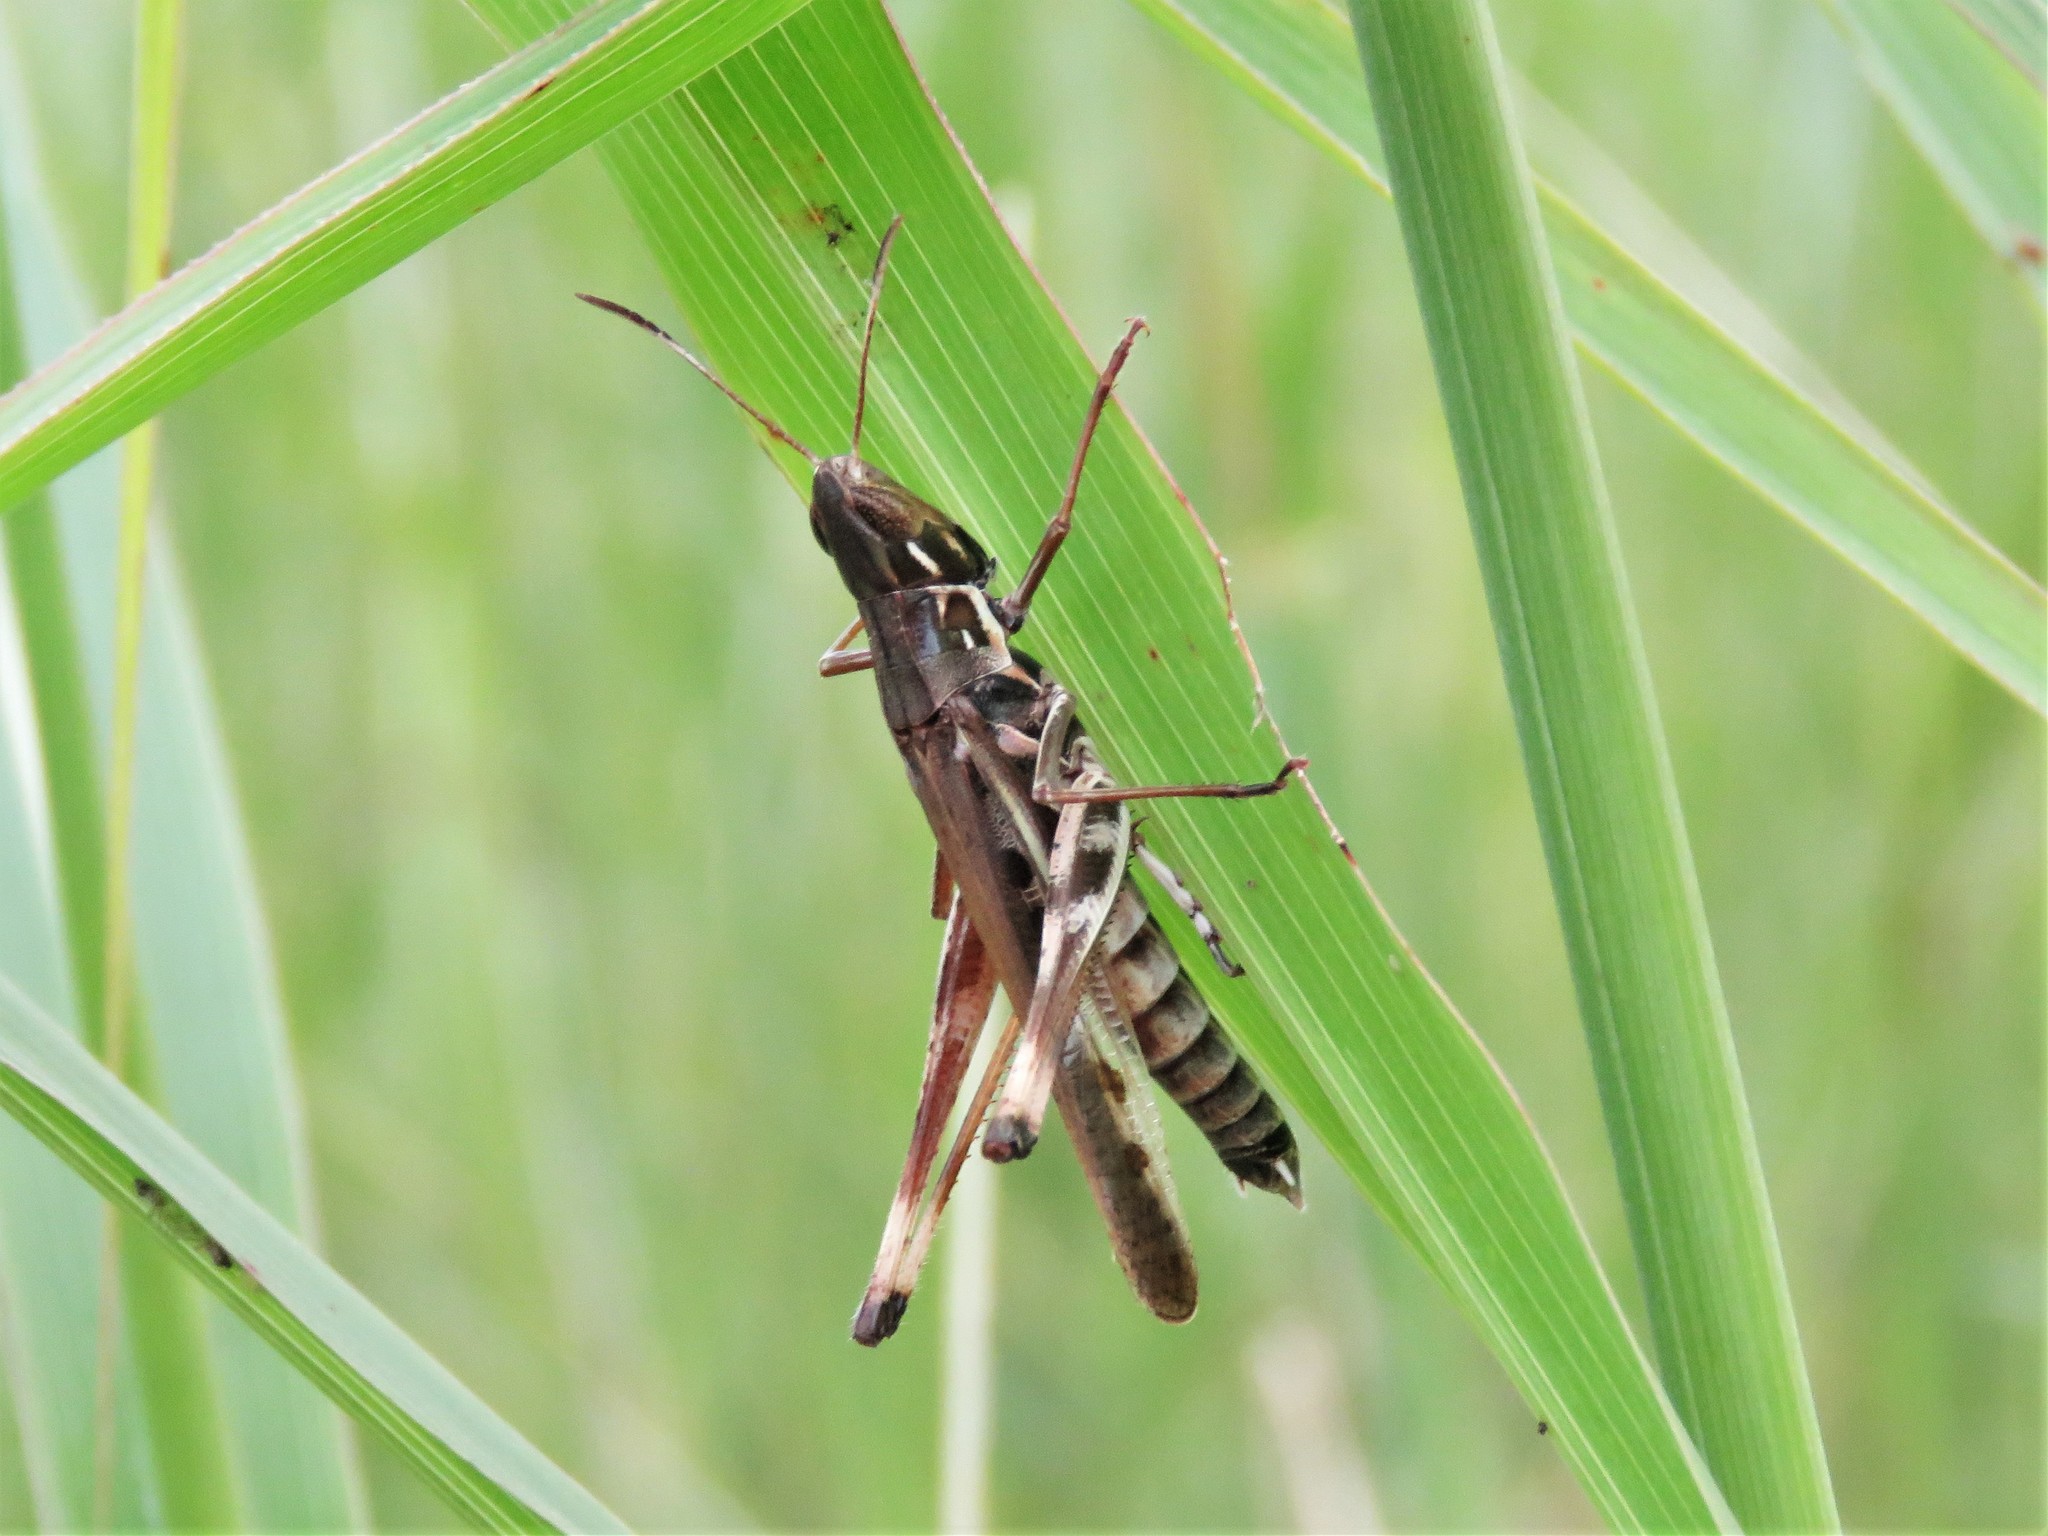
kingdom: Animalia
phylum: Arthropoda
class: Insecta
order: Orthoptera
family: Acrididae
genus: Syrbula
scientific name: Syrbula admirabilis
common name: Handsome grasshopper
